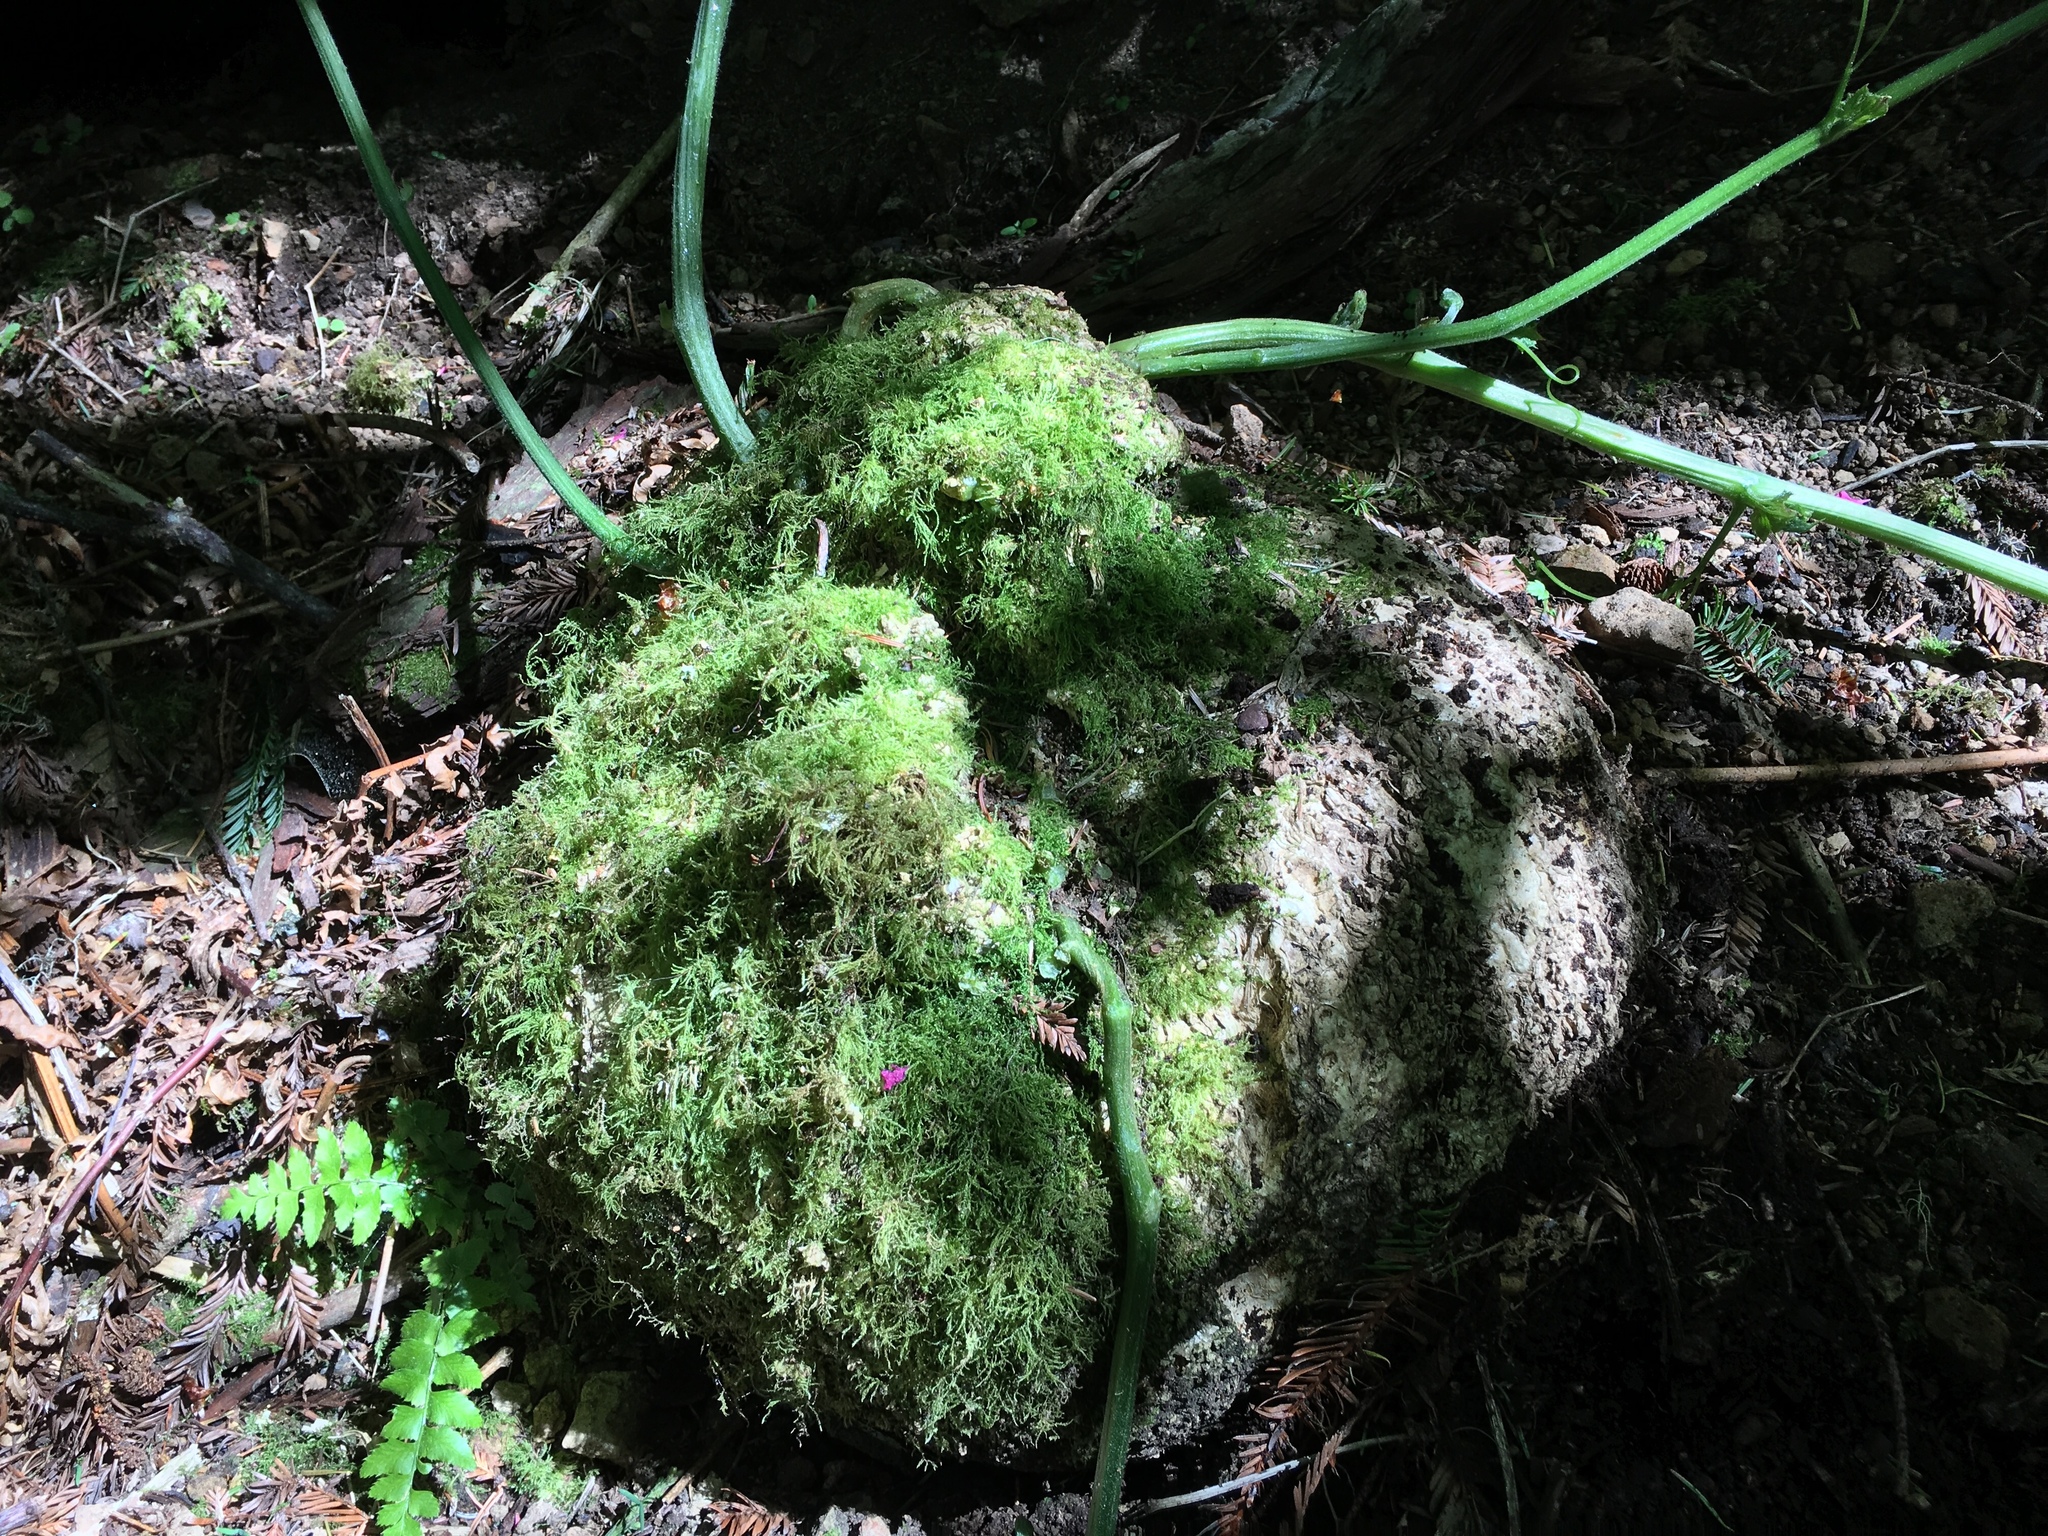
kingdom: Plantae
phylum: Tracheophyta
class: Magnoliopsida
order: Cucurbitales
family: Cucurbitaceae
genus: Marah
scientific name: Marah oregana
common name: Coastal manroot
